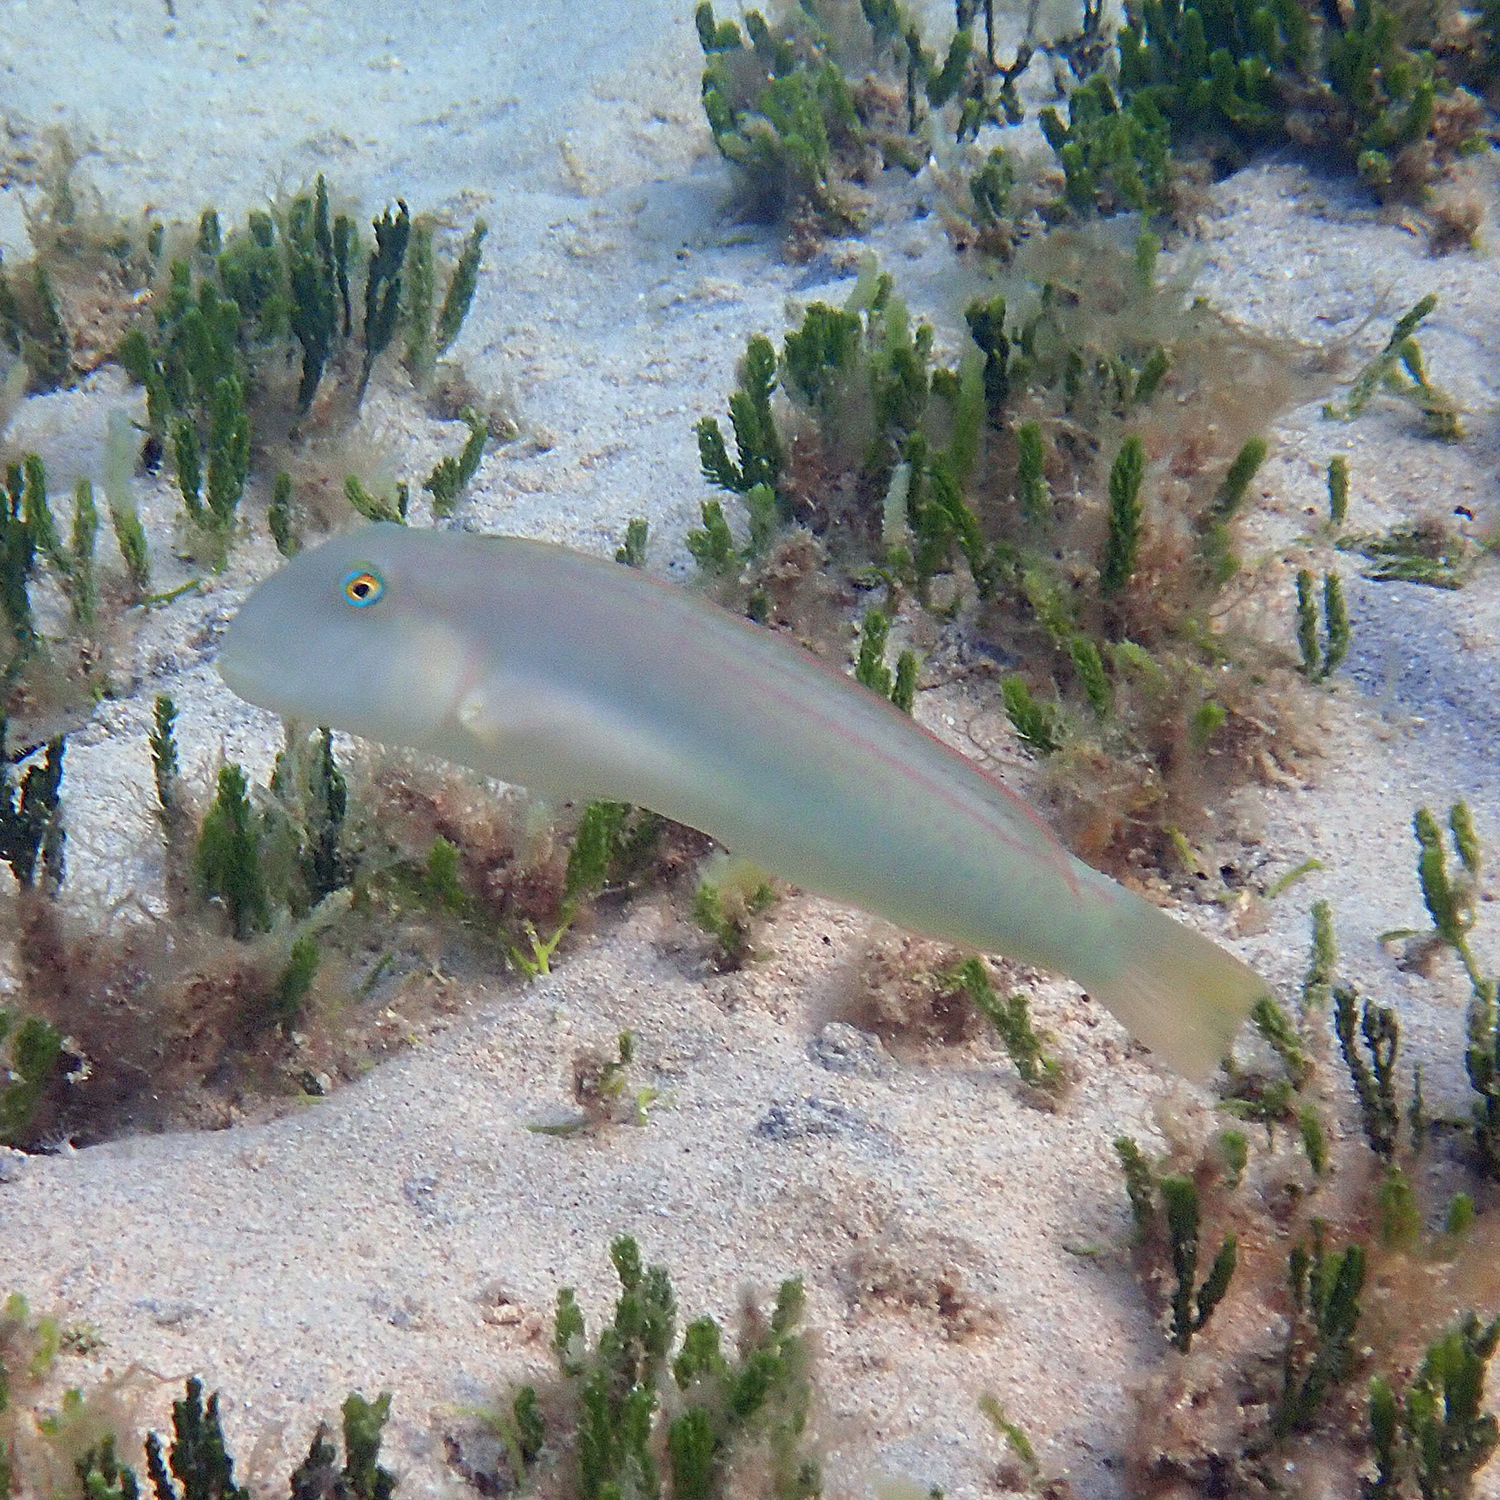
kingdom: Animalia
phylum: Chordata
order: Perciformes
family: Labridae
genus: Cymolutes
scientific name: Cymolutes praetextatus
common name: Knife razorfish
